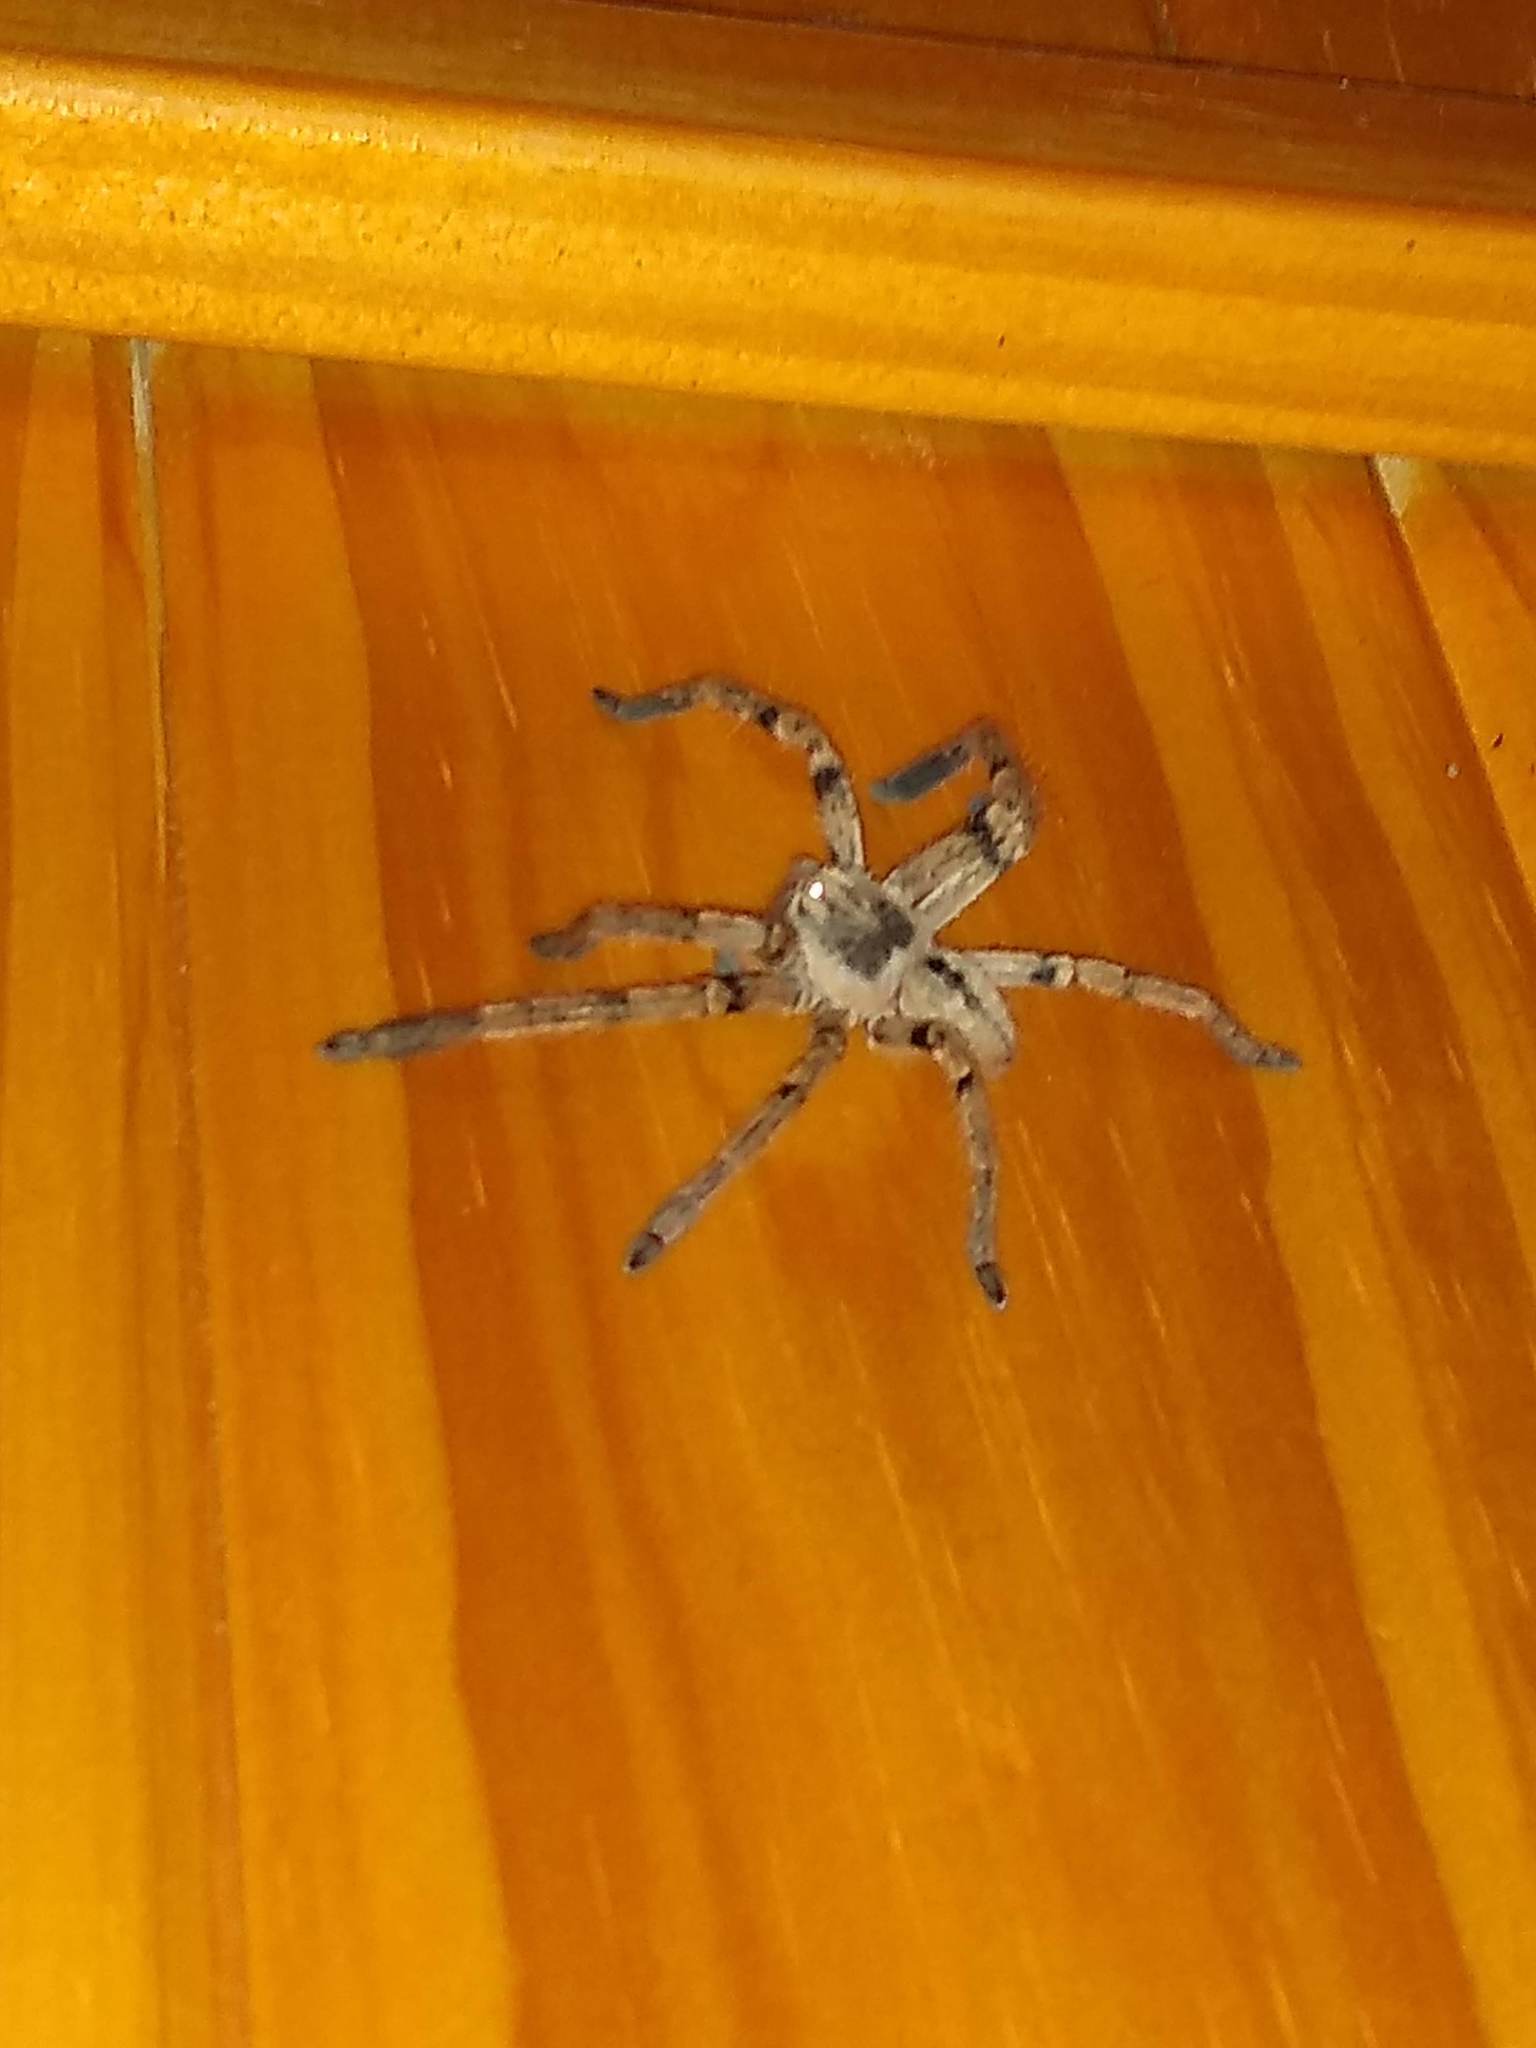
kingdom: Animalia
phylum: Arthropoda
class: Arachnida
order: Araneae
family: Sparassidae
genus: Polybetes
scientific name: Polybetes pythagoricus
